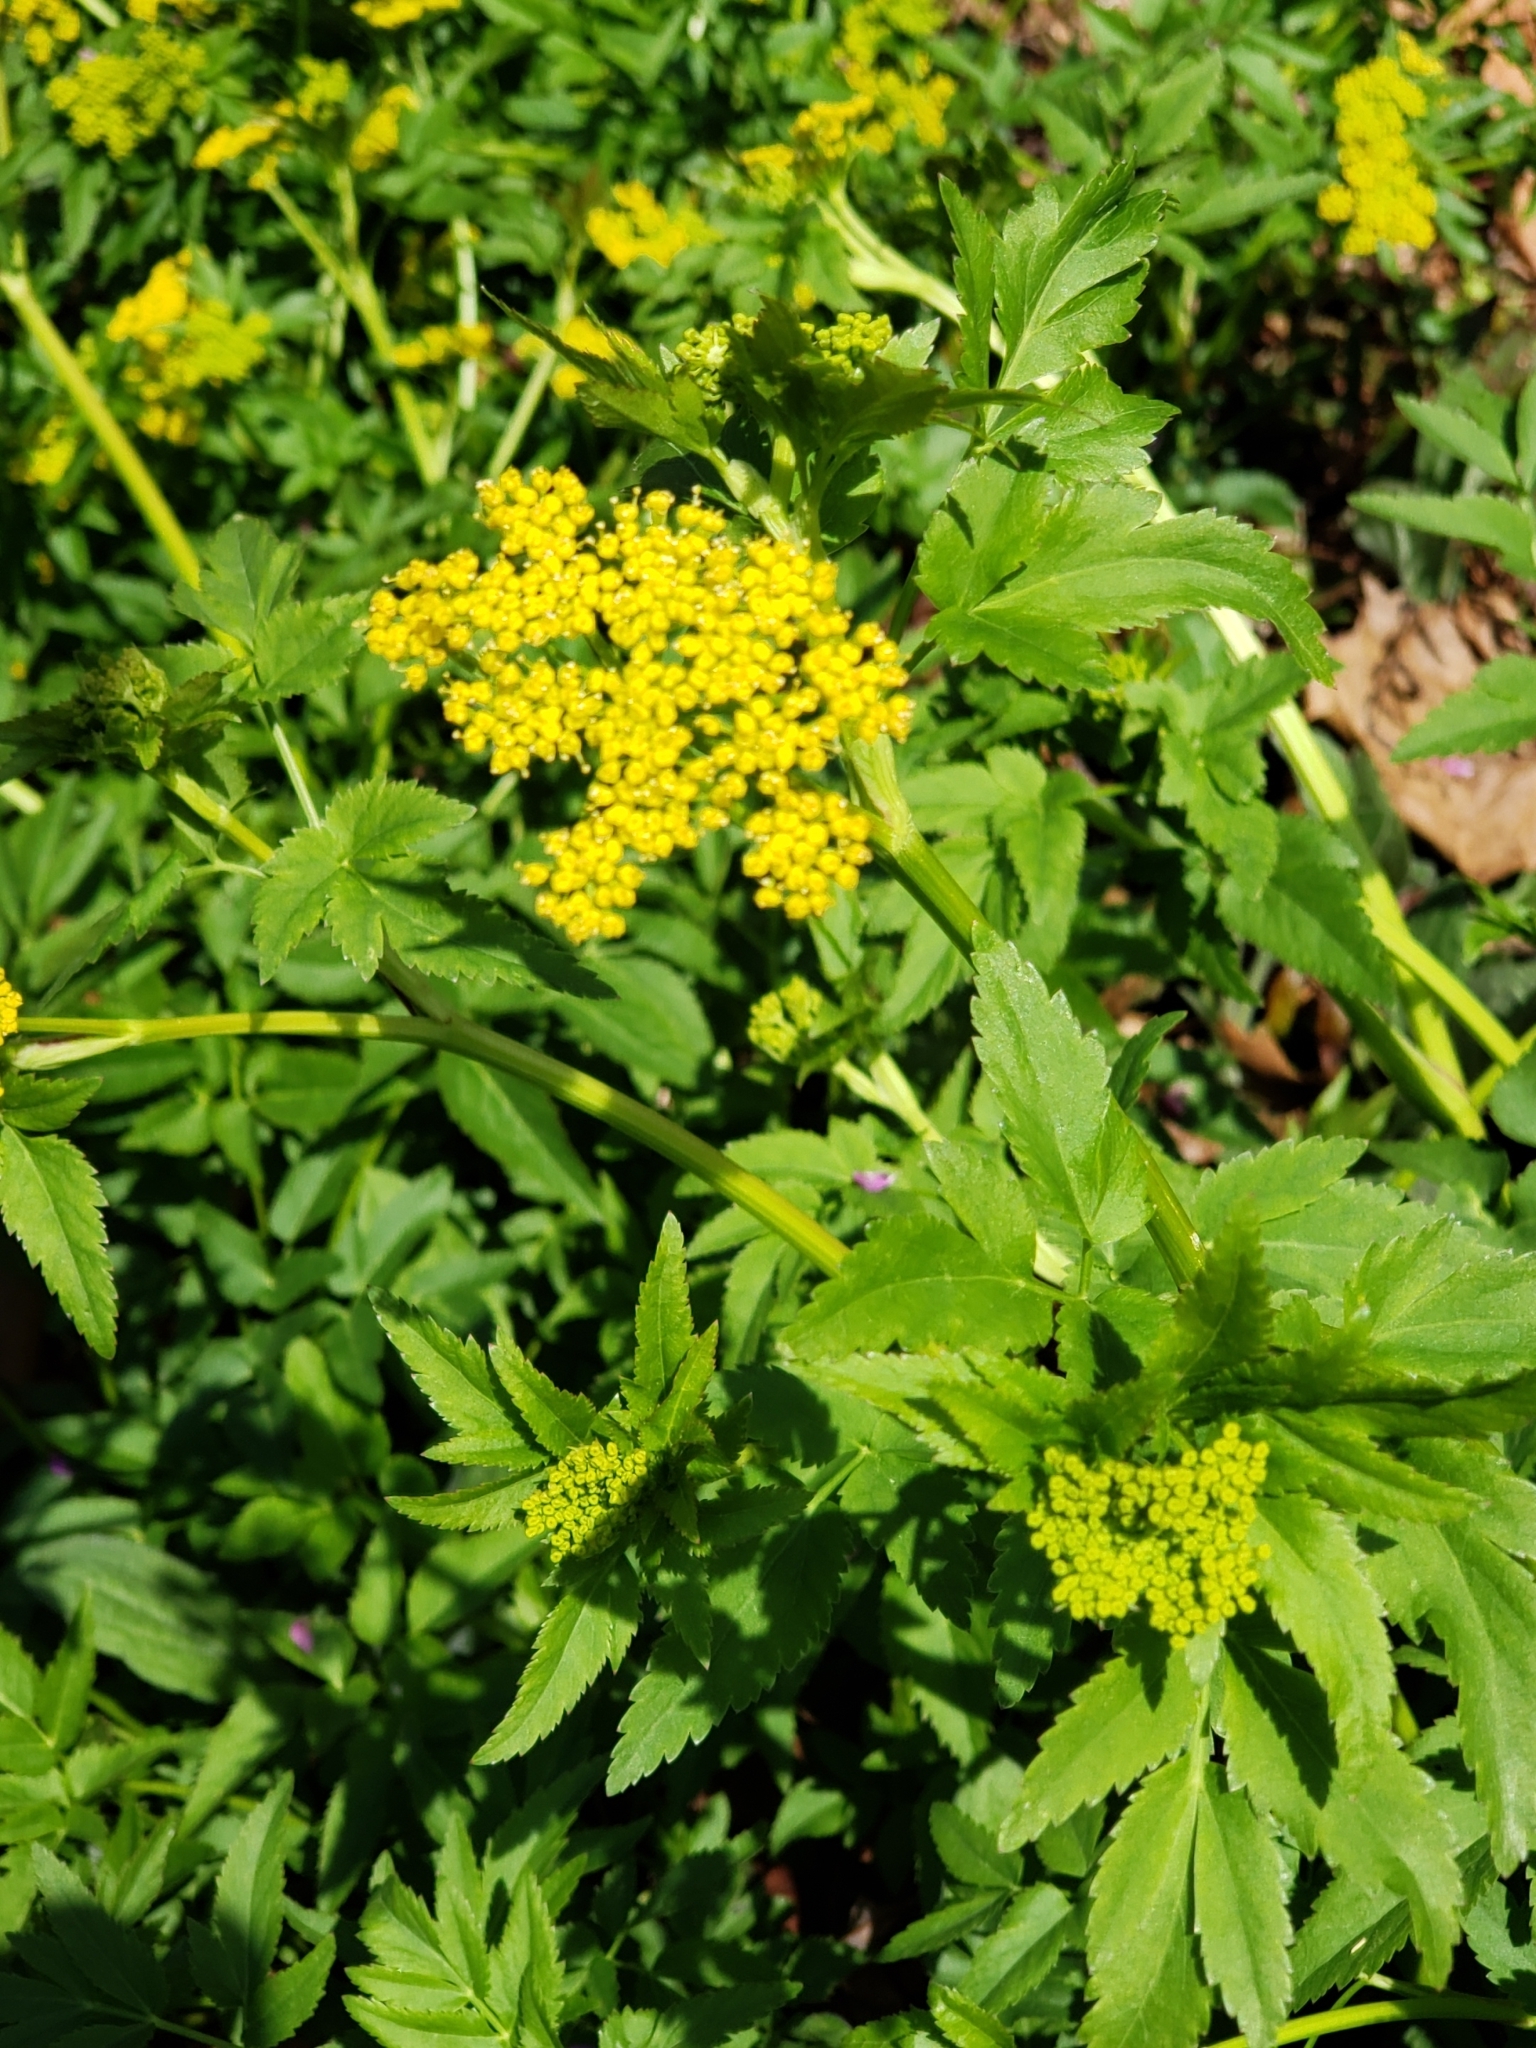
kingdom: Plantae
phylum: Tracheophyta
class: Magnoliopsida
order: Apiales
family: Apiaceae
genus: Zizia
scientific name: Zizia aurea
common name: Golden alexanders
